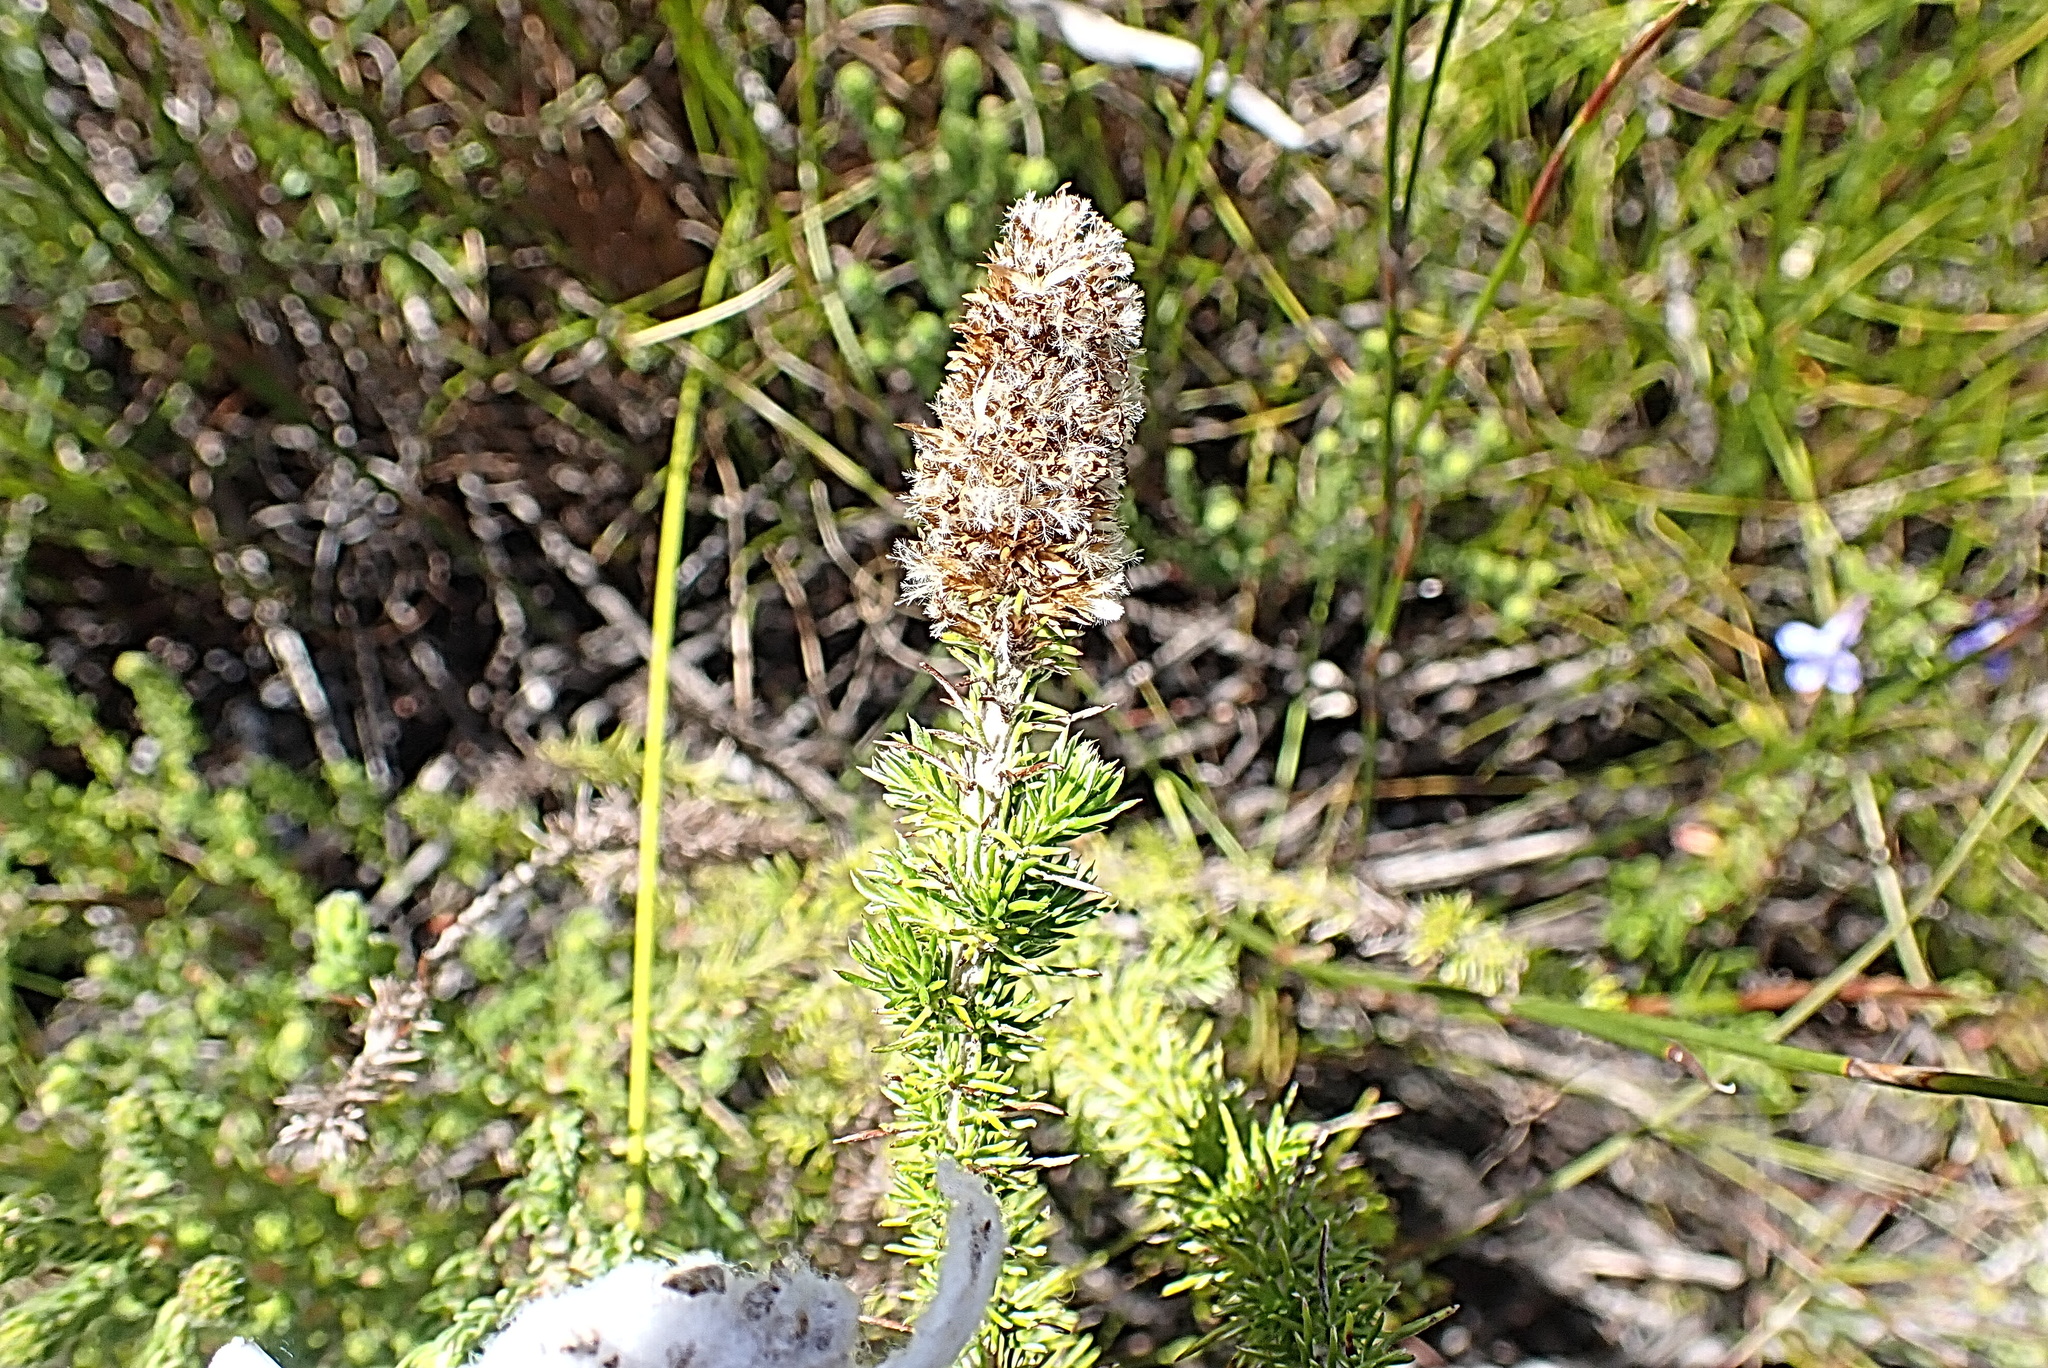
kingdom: Plantae
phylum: Tracheophyta
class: Magnoliopsida
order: Asterales
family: Asteraceae
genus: Stoebe
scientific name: Stoebe alopecuroides
